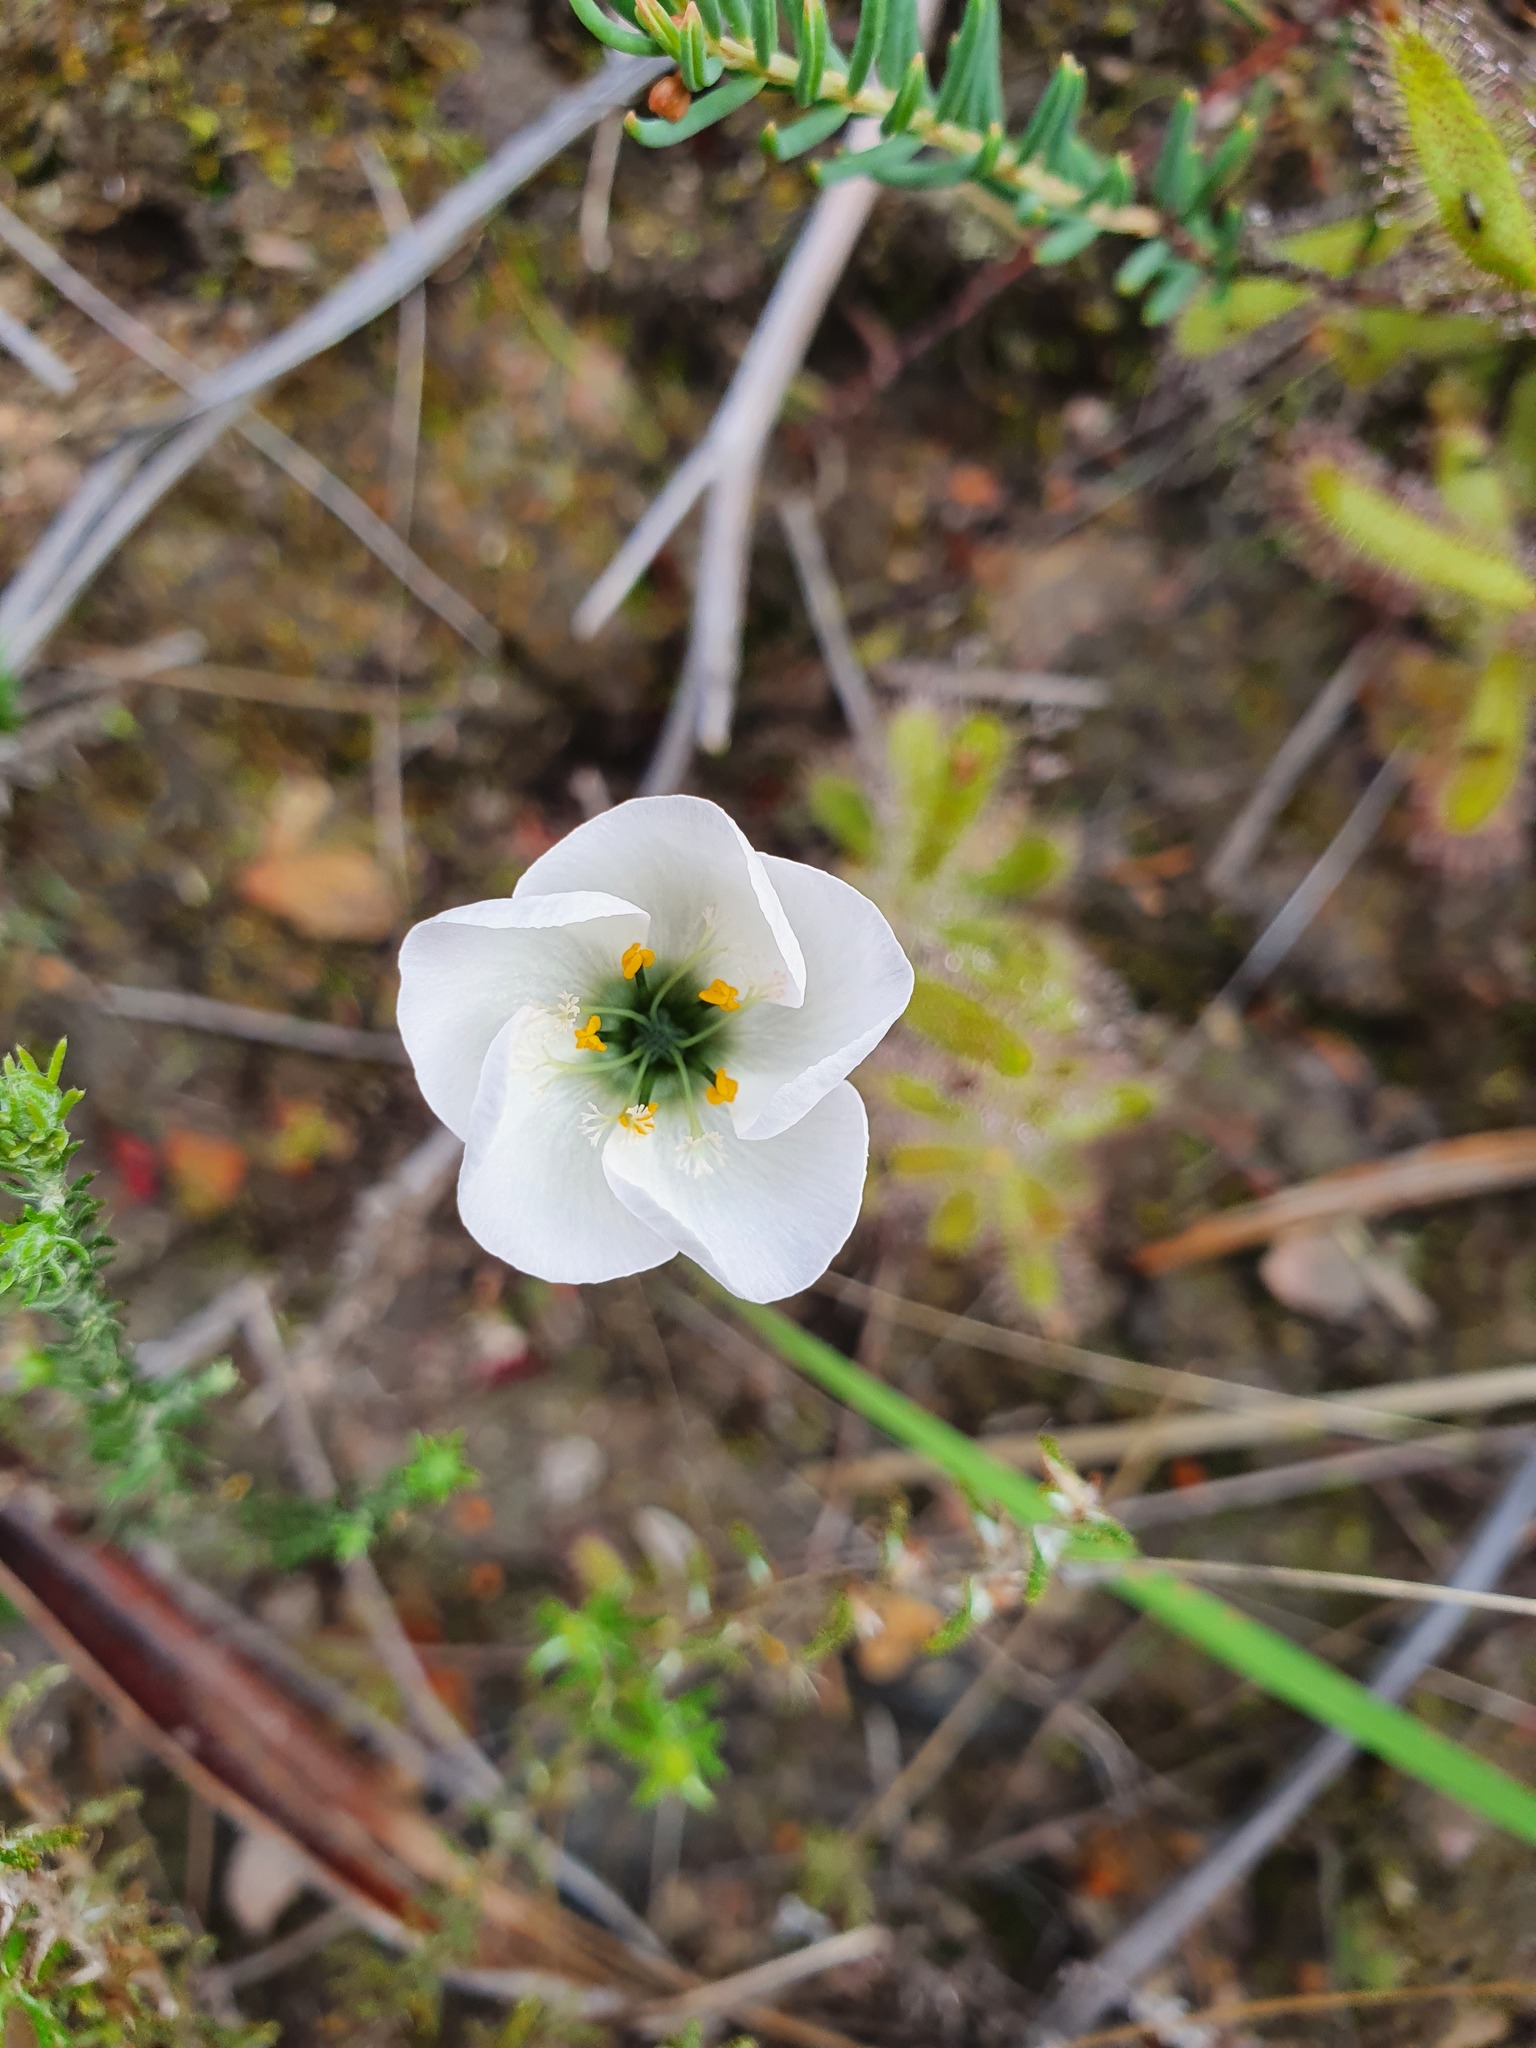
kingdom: Plantae
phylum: Tracheophyta
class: Magnoliopsida
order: Caryophyllales
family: Droseraceae
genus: Drosera
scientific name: Drosera cistiflora
